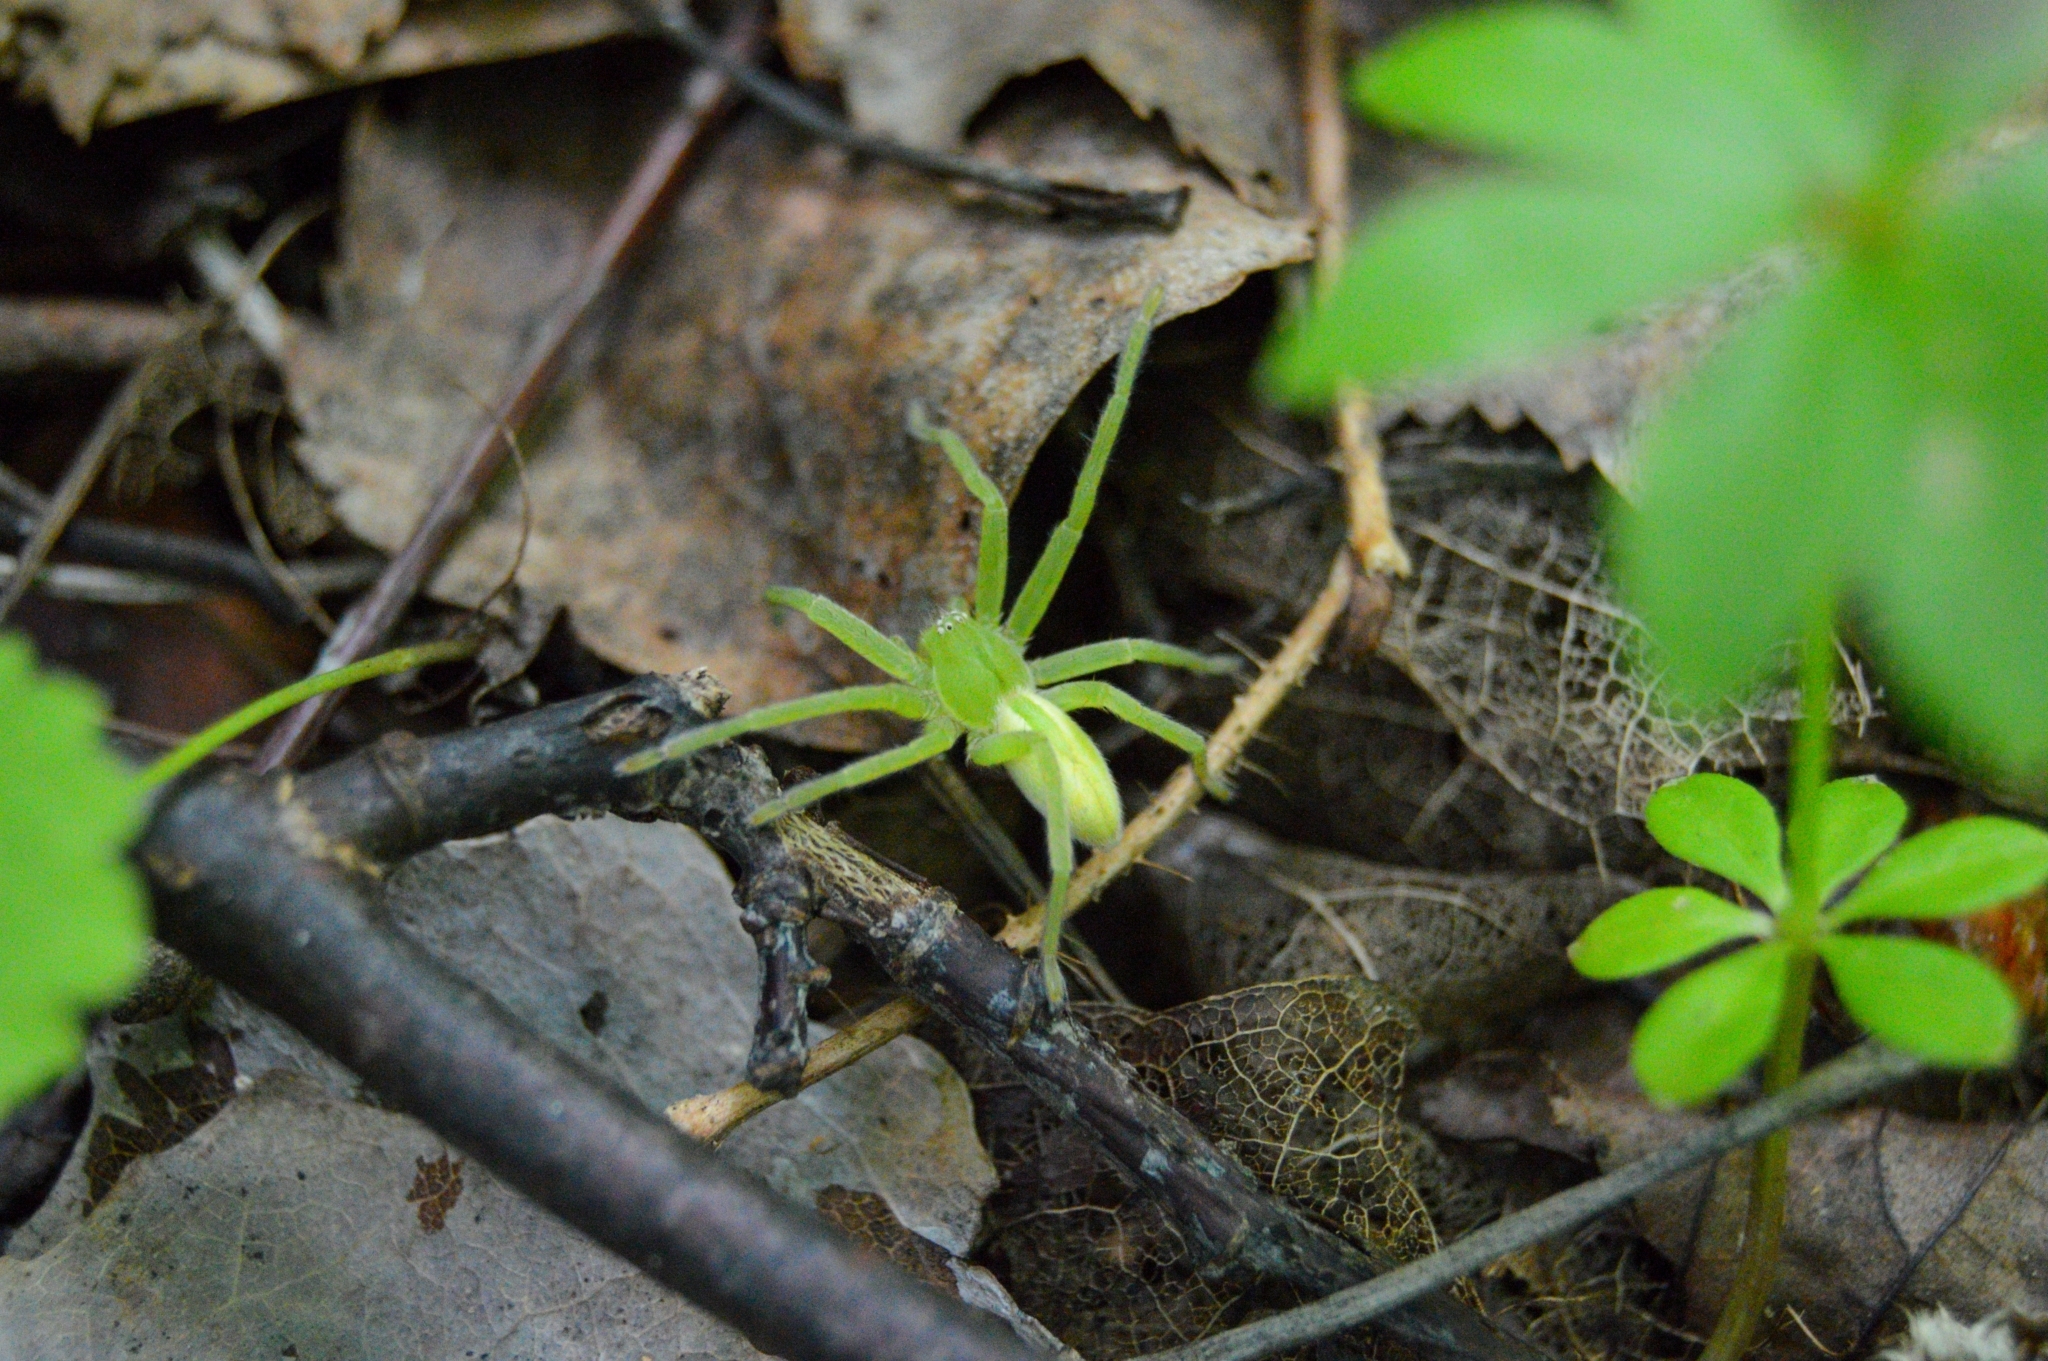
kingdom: Animalia
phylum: Arthropoda
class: Arachnida
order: Araneae
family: Sparassidae
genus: Micrommata
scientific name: Micrommata virescens
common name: Green spider
